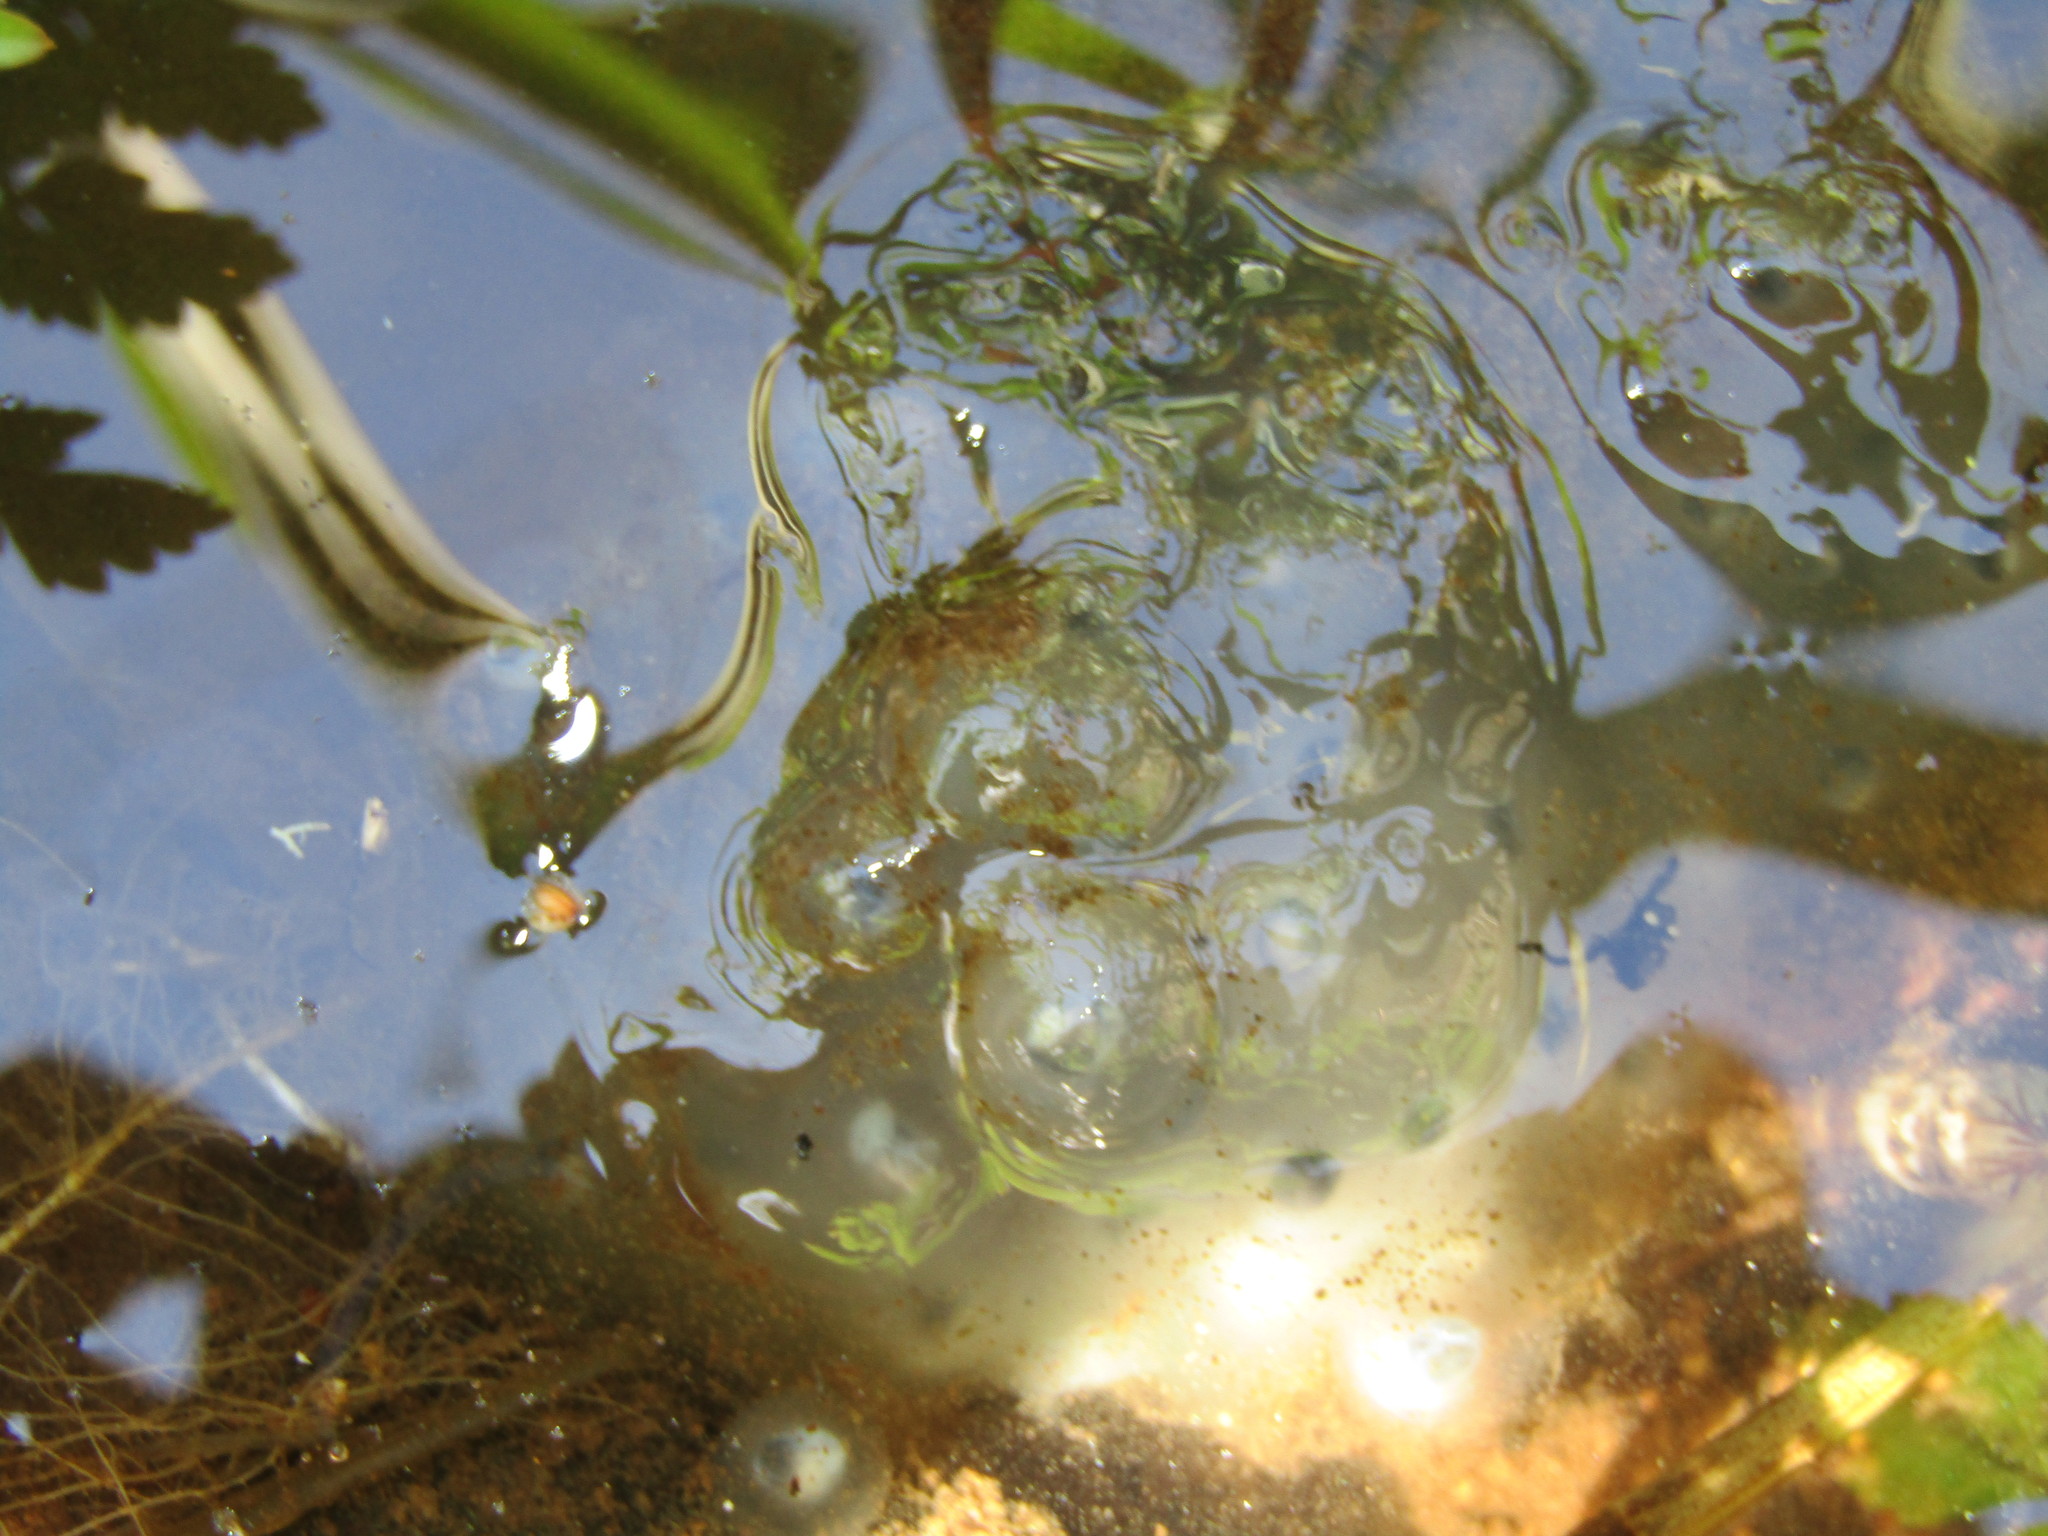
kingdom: Animalia
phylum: Chordata
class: Amphibia
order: Caudata
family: Ambystomatidae
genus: Ambystoma
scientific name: Ambystoma gracile
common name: Northwestern salamander
